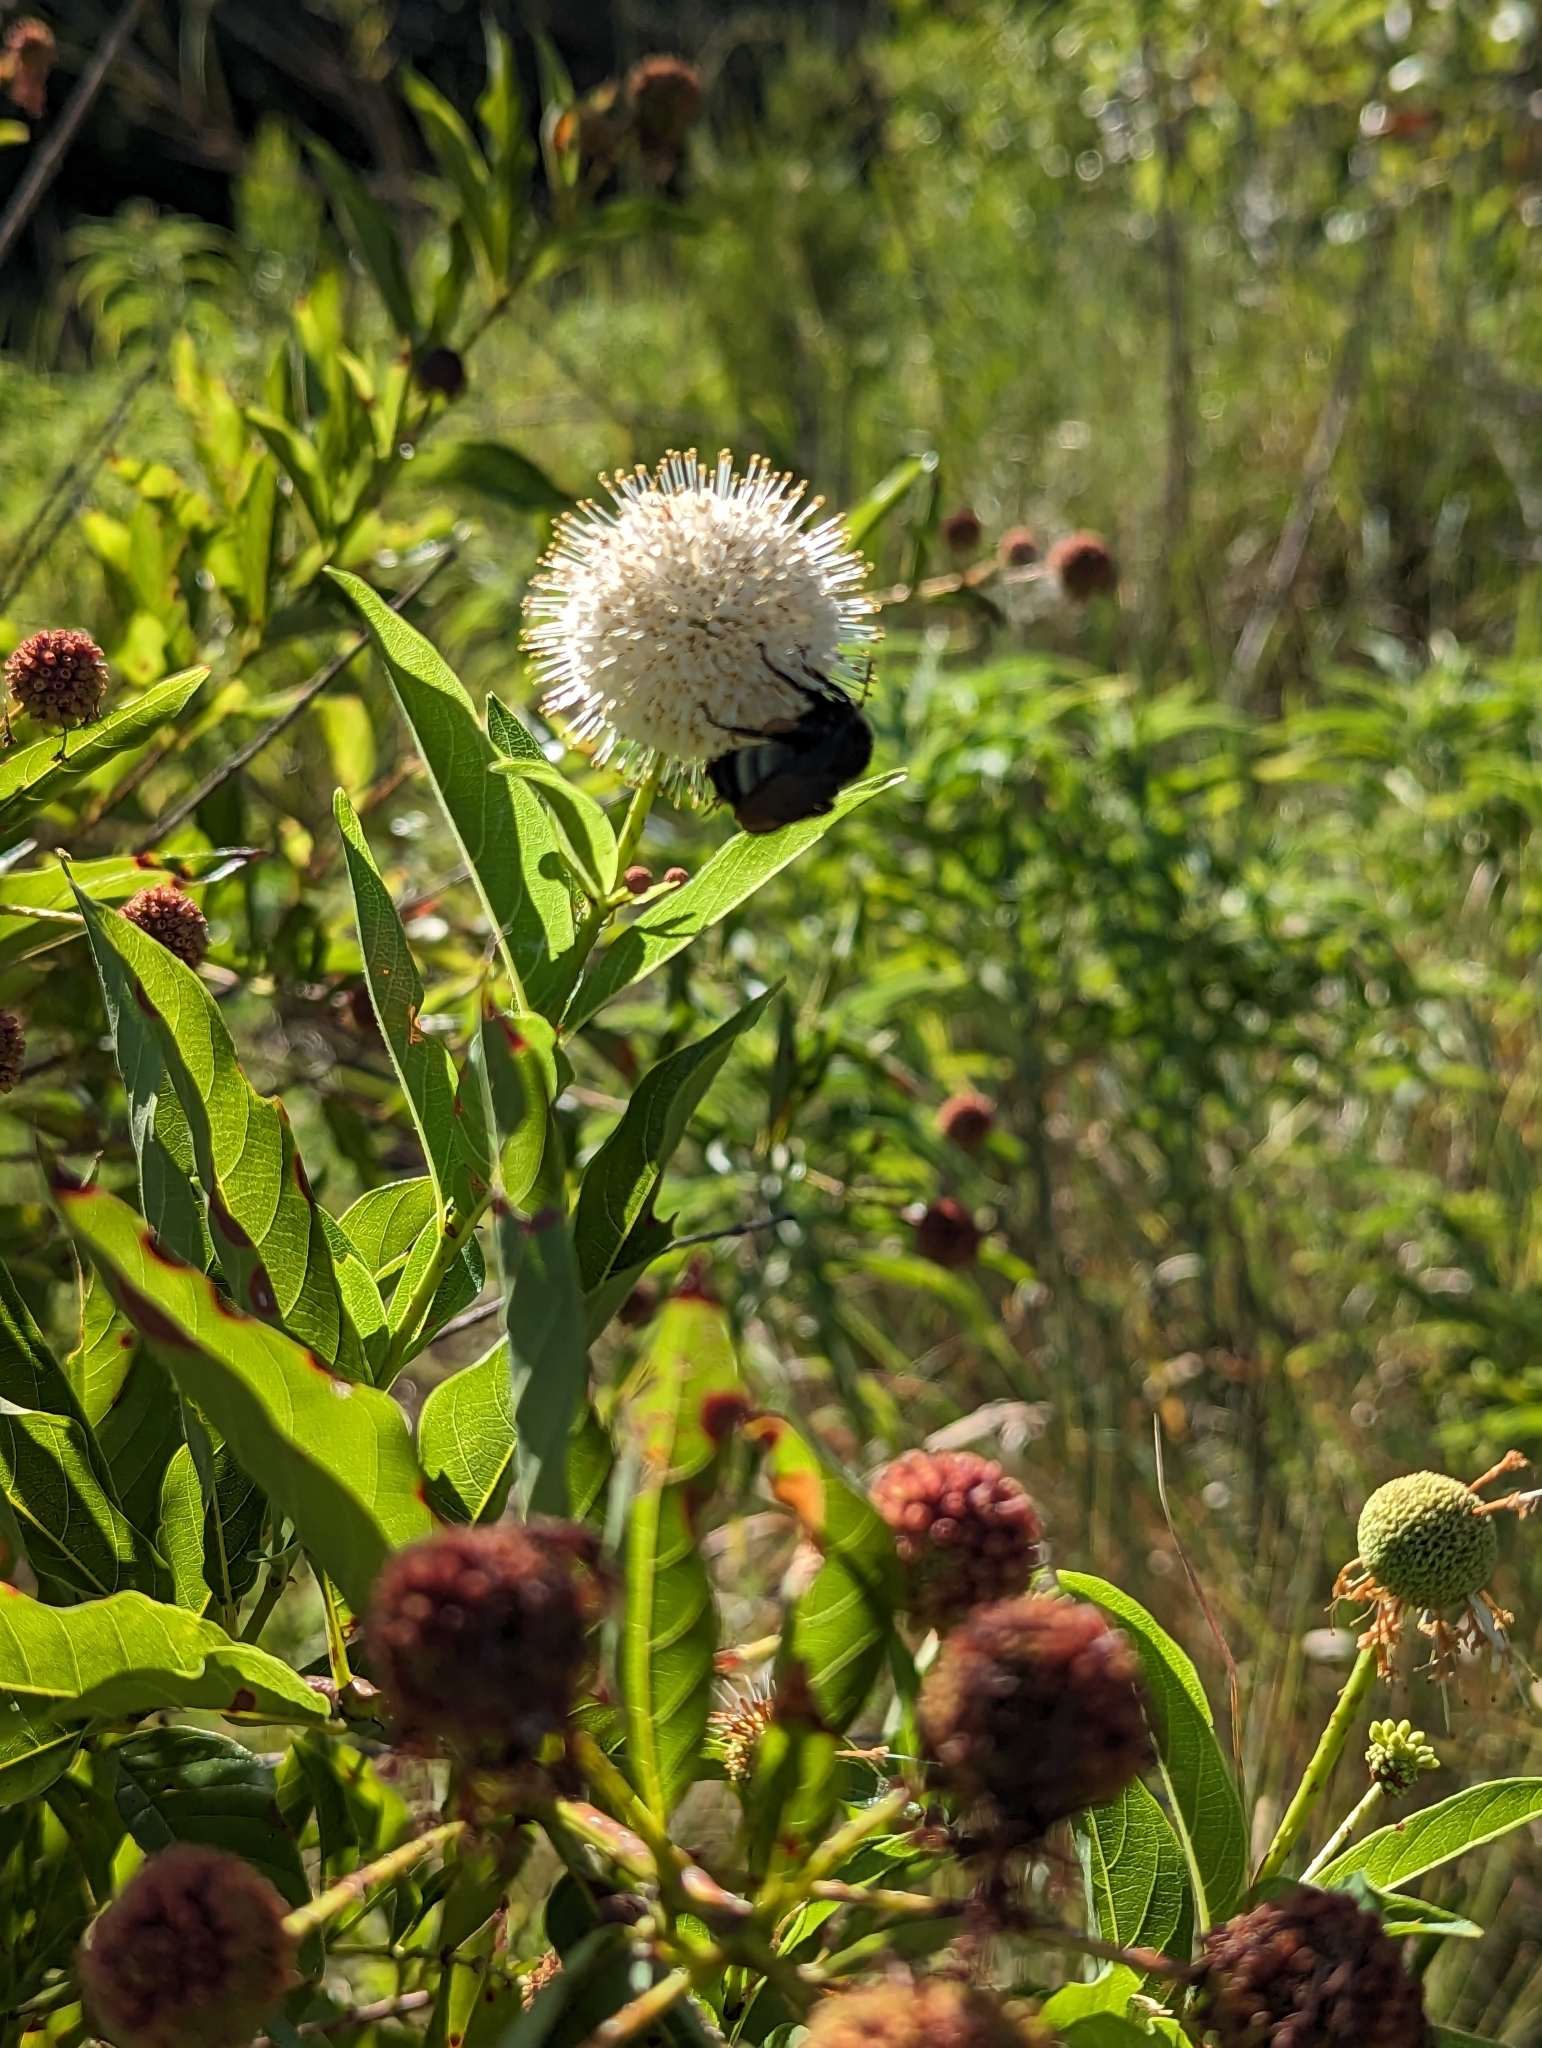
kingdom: Animalia
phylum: Arthropoda
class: Insecta
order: Hymenoptera
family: Apidae
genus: Bombus
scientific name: Bombus pensylvanicus
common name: Bumble bee
